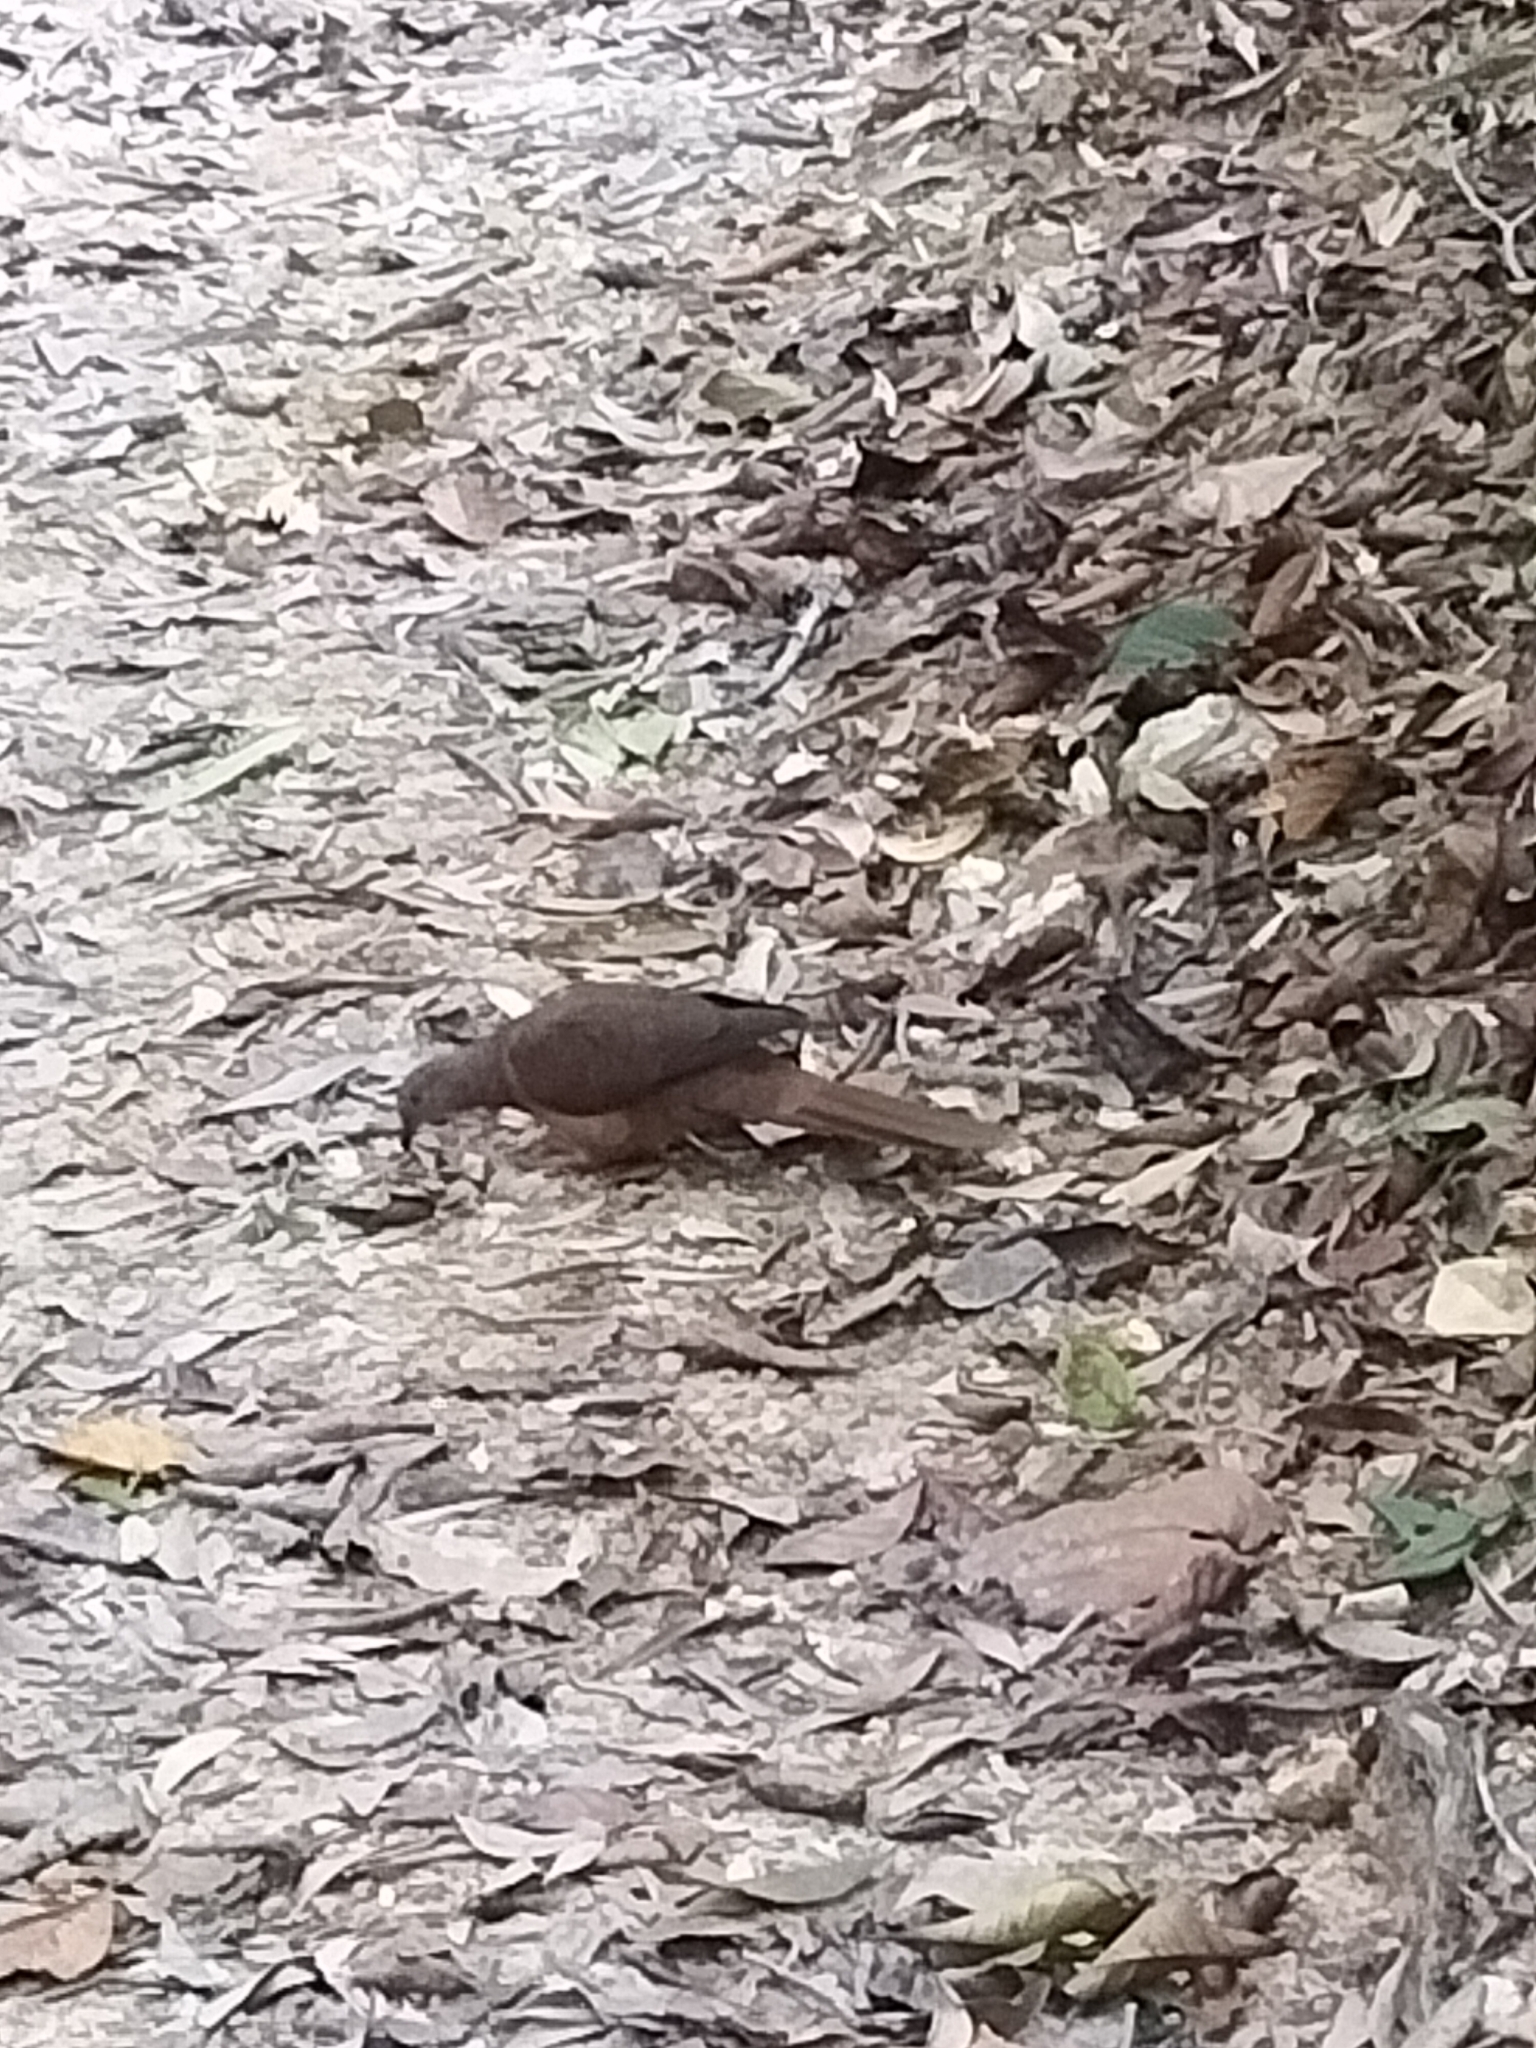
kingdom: Animalia
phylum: Chordata
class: Aves
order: Columbiformes
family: Columbidae
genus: Macropygia
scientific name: Macropygia phasianella
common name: Brown cuckoo-dove
